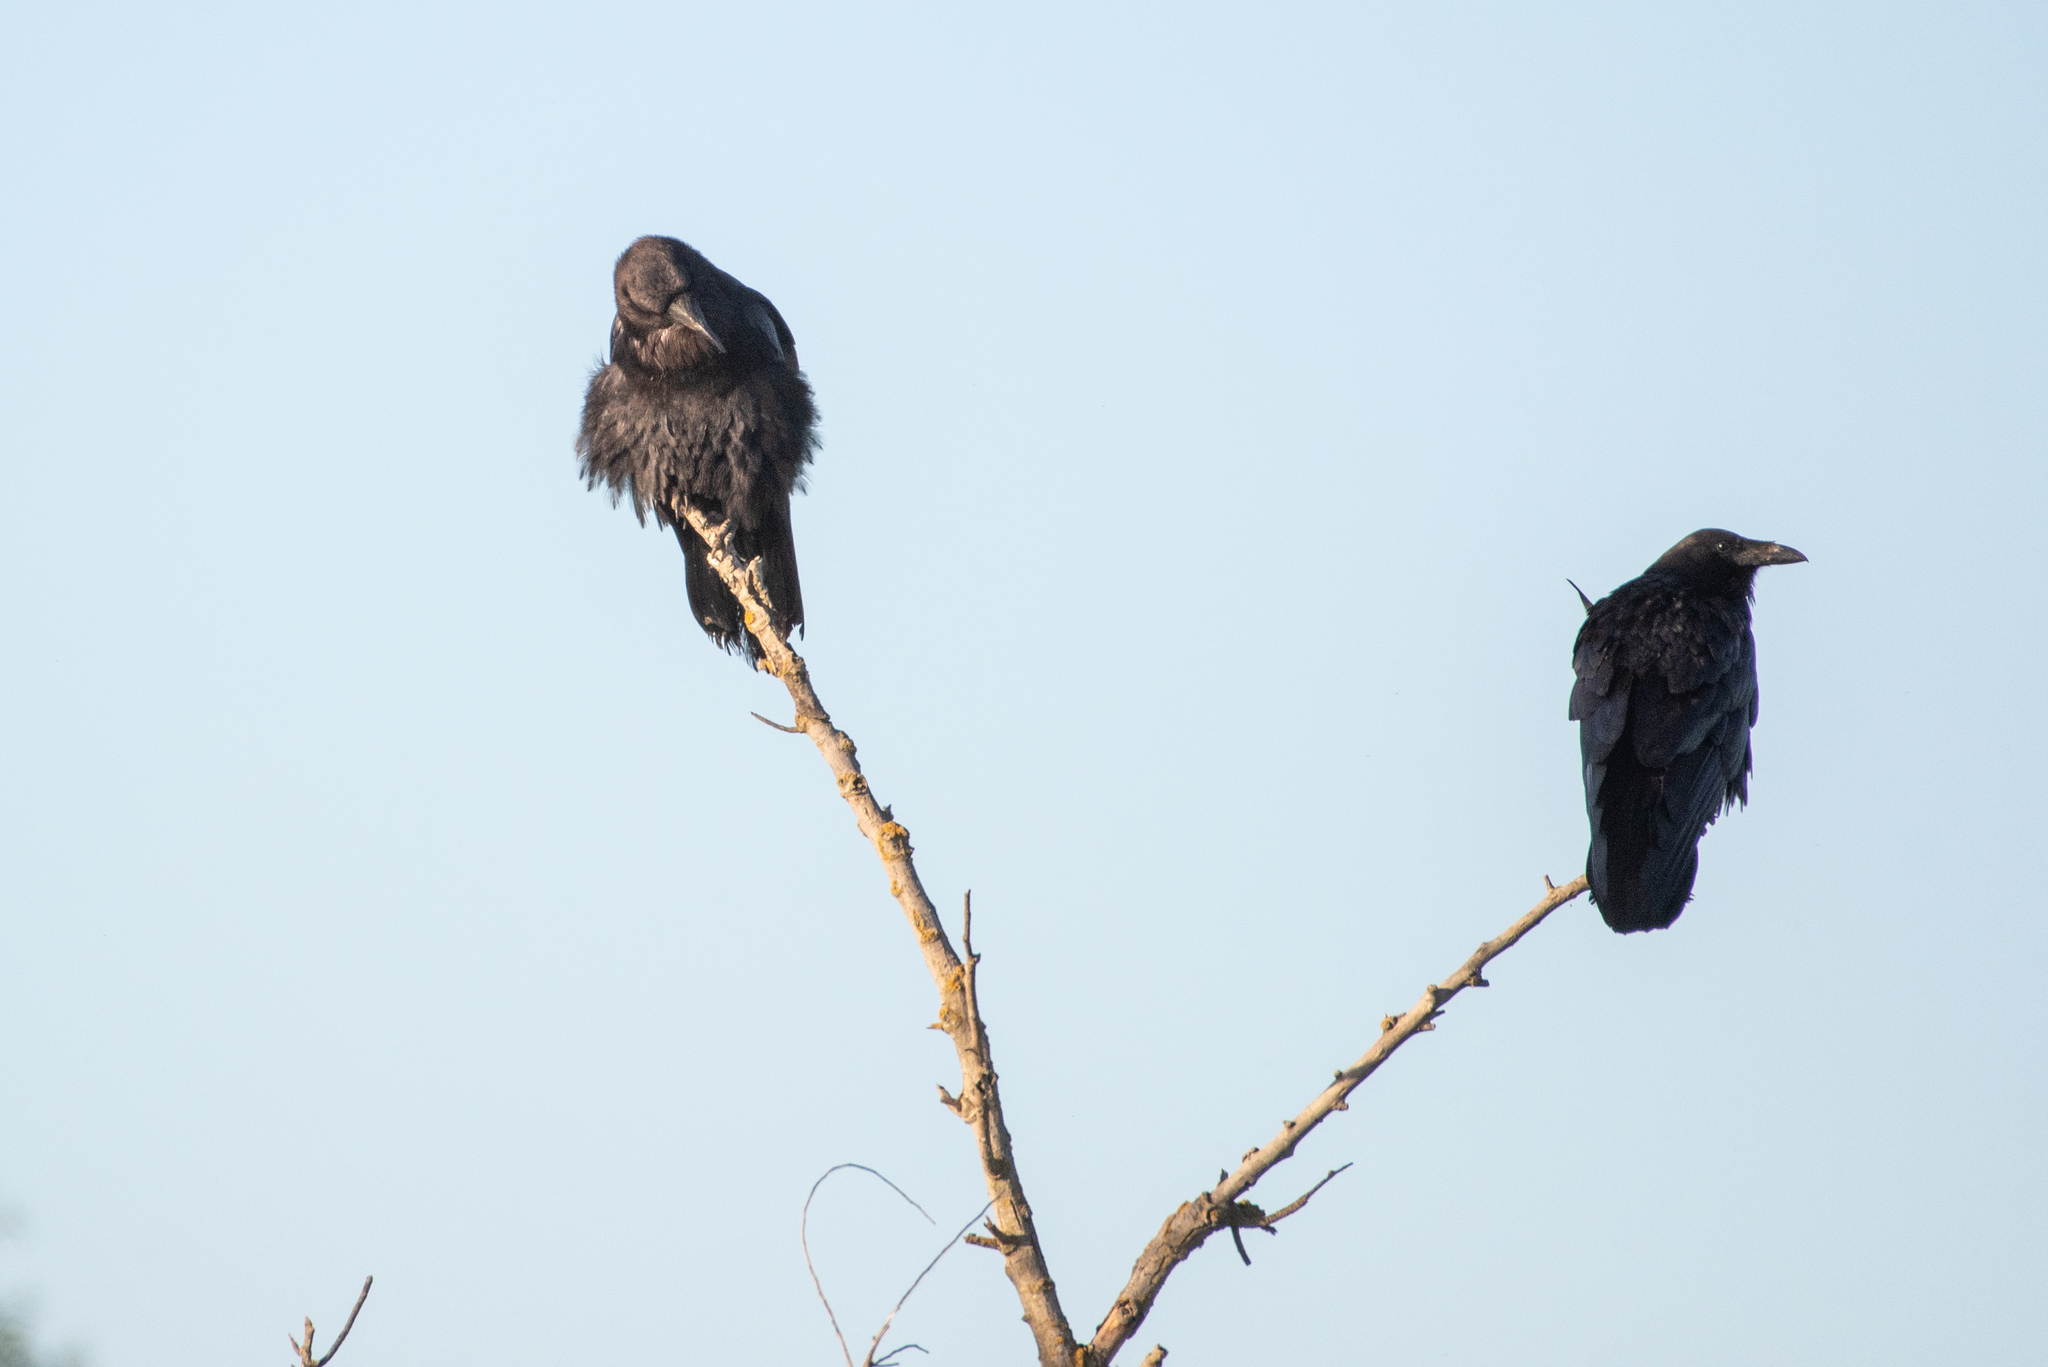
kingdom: Animalia
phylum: Chordata
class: Aves
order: Passeriformes
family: Corvidae
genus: Corvus
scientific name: Corvus corax
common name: Common raven
